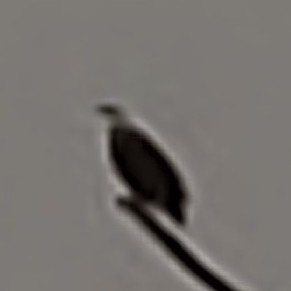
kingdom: Animalia
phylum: Chordata
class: Aves
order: Accipitriformes
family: Accipitridae
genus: Haliaeetus
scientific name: Haliaeetus leucocephalus
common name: Bald eagle
